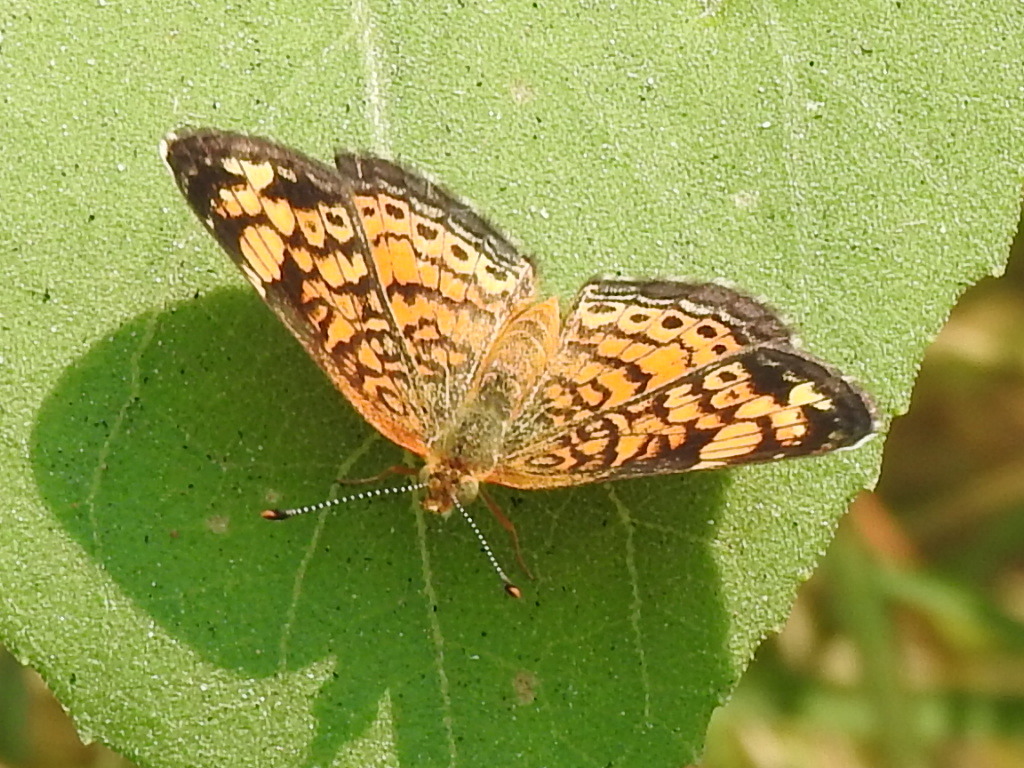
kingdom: Animalia
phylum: Arthropoda
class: Insecta
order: Lepidoptera
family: Nymphalidae
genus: Phyciodes
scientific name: Phyciodes tharos
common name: Pearl crescent
